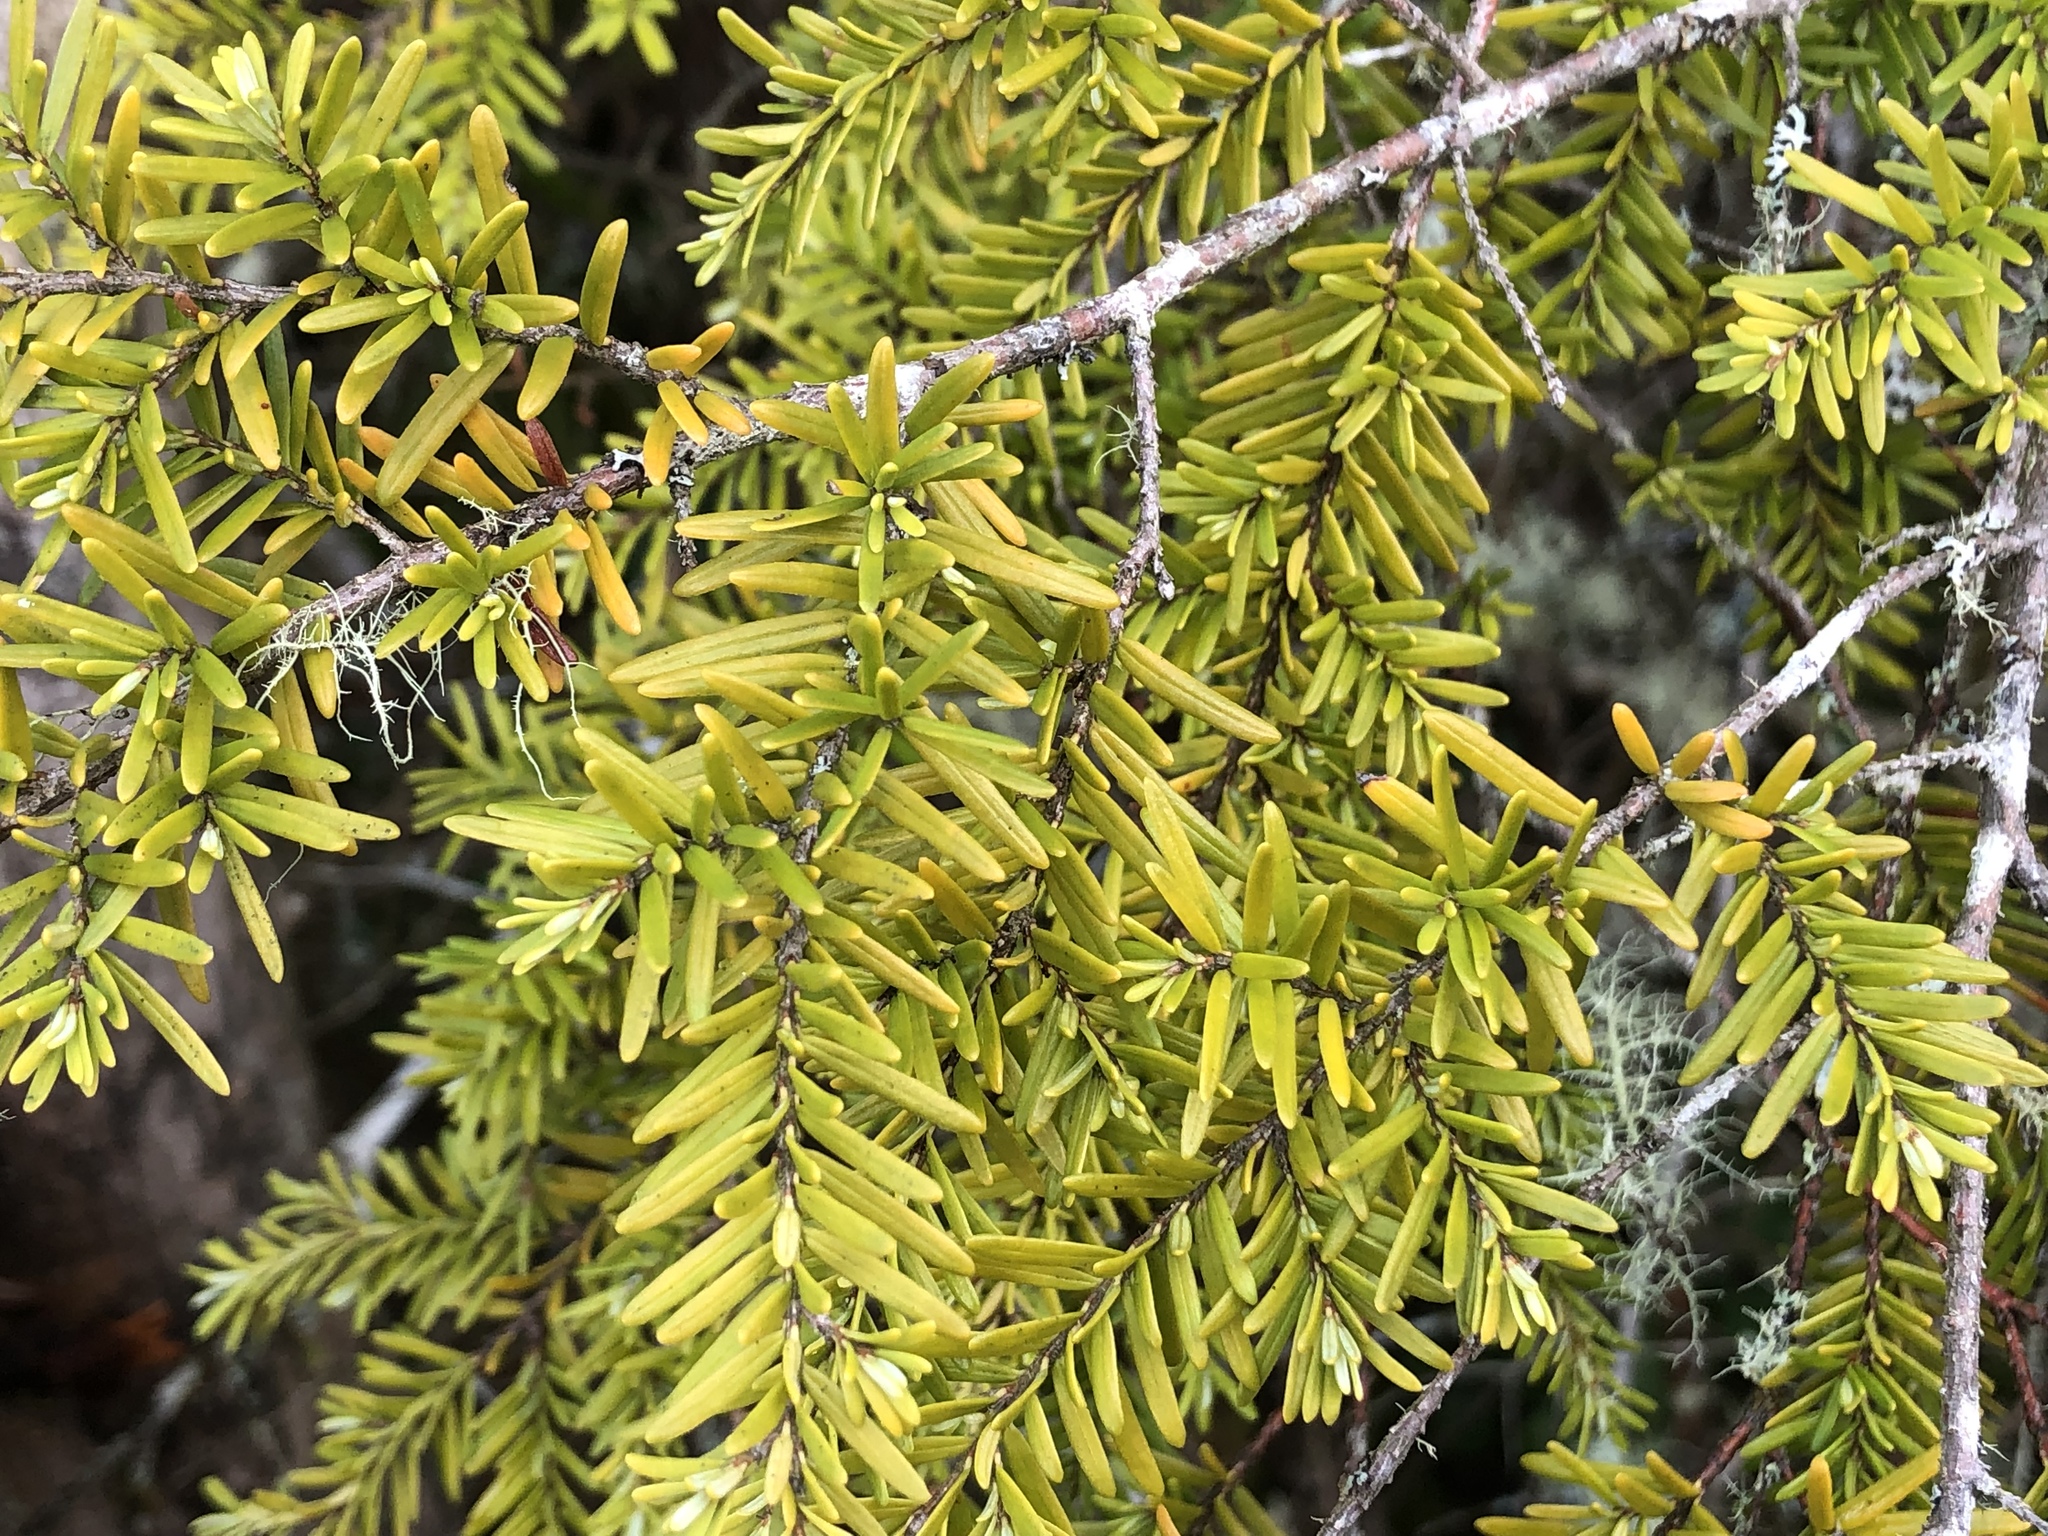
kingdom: Plantae
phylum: Tracheophyta
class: Pinopsida
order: Pinales
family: Pinaceae
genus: Tsuga
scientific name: Tsuga heterophylla
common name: Western hemlock
